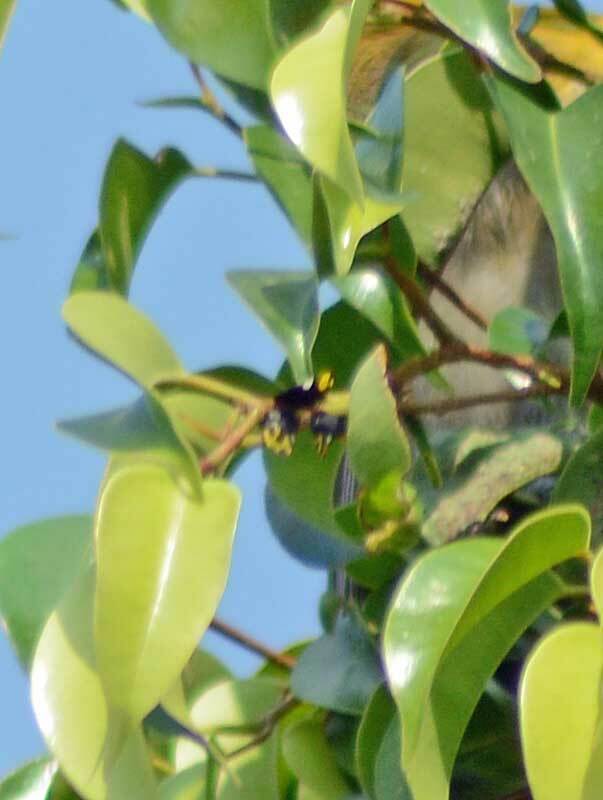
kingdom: Animalia
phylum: Arthropoda
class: Insecta
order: Hemiptera
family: Membracidae
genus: Membracis
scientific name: Membracis mexicana
